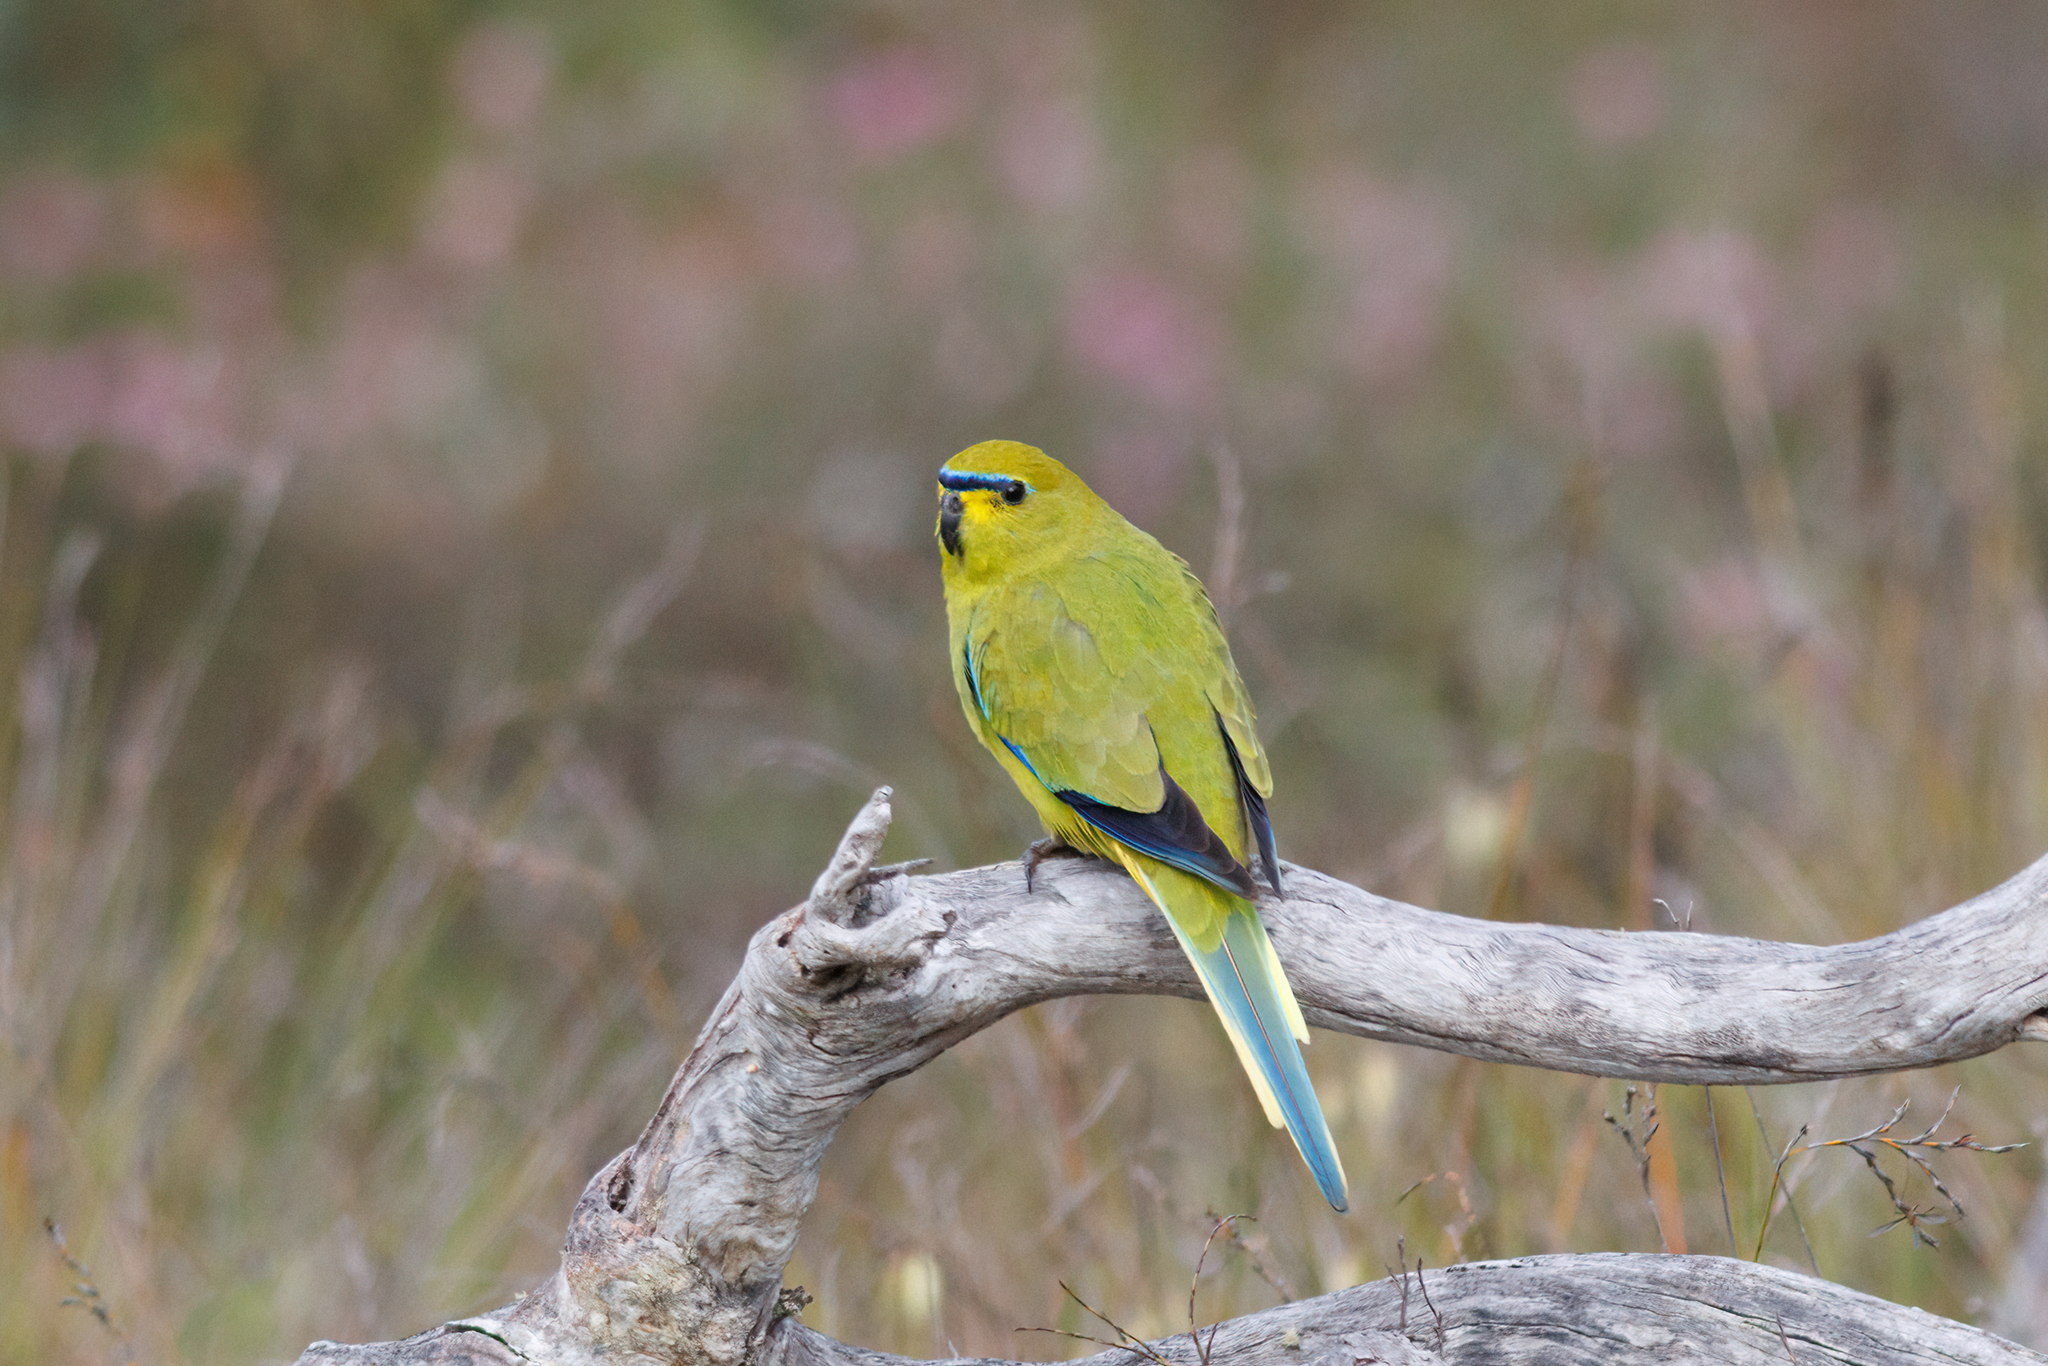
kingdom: Animalia
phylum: Chordata
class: Aves
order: Psittaciformes
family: Psittacidae
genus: Neophema
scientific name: Neophema elegans
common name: Elegant parrot
